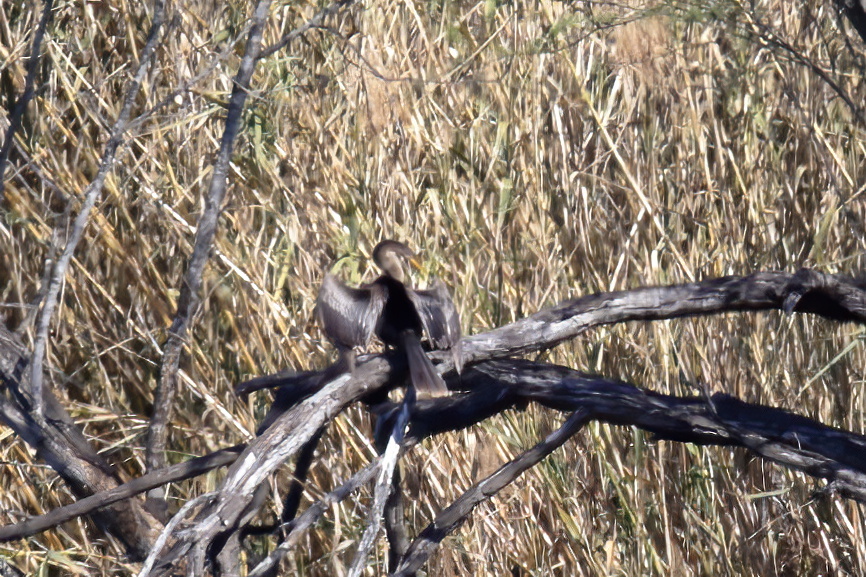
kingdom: Animalia
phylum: Chordata
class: Aves
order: Suliformes
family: Anhingidae
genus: Anhinga
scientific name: Anhinga anhinga
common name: Anhinga
